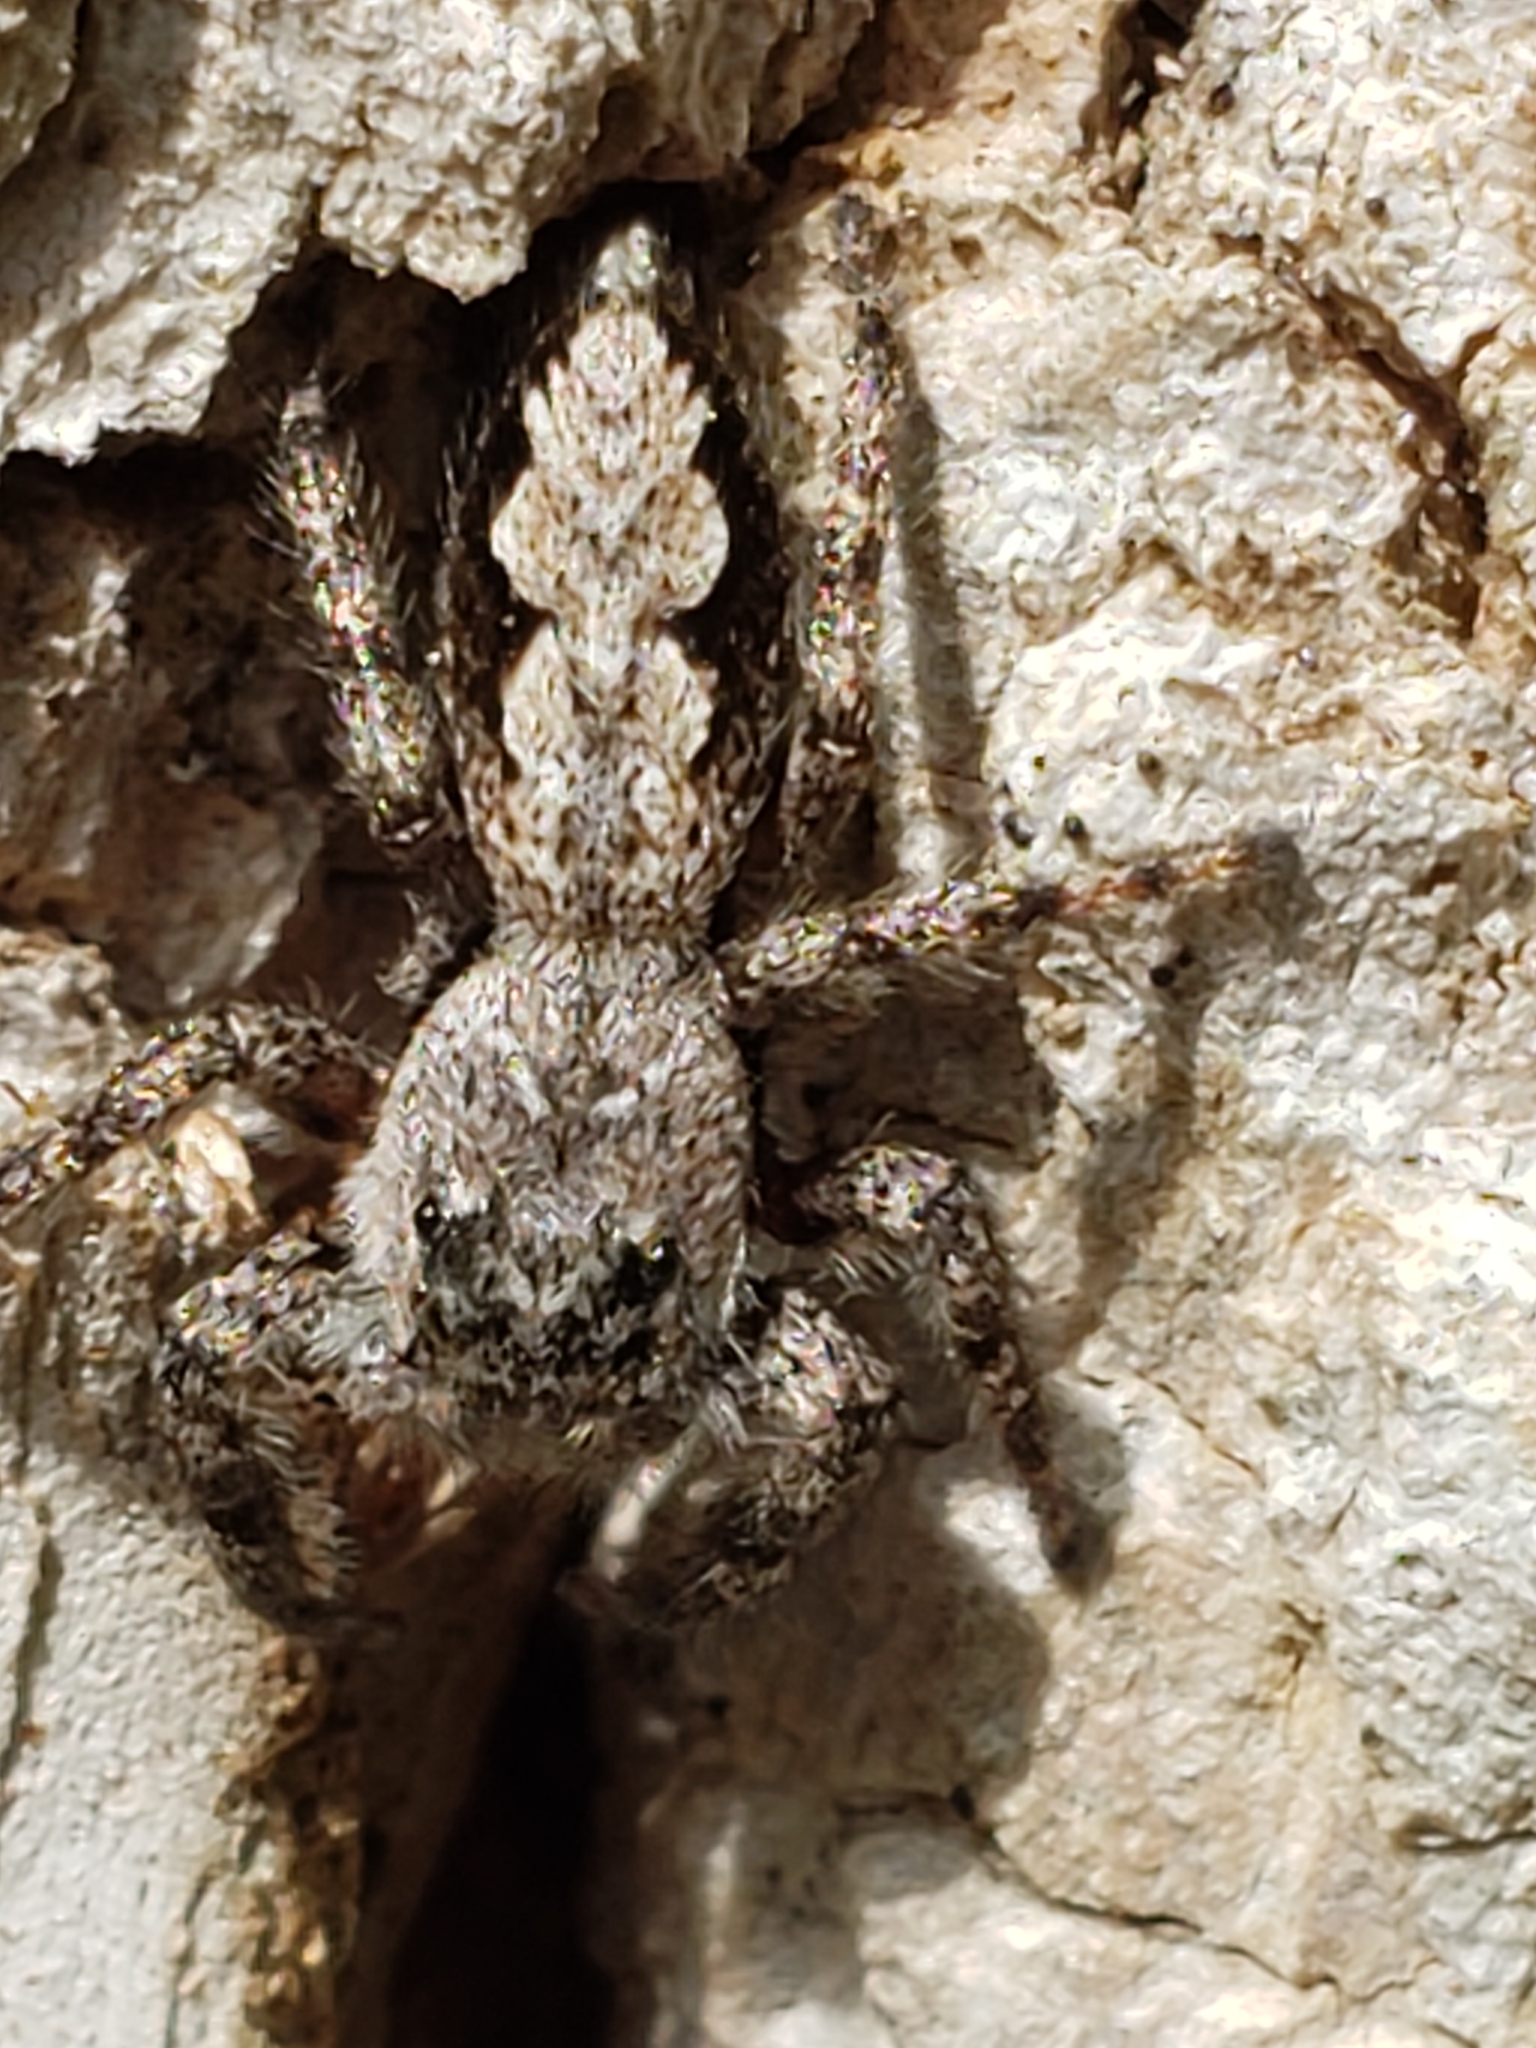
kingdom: Animalia
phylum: Arthropoda
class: Arachnida
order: Araneae
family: Salticidae
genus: Platycryptus
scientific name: Platycryptus undatus
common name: Tan jumping spider
